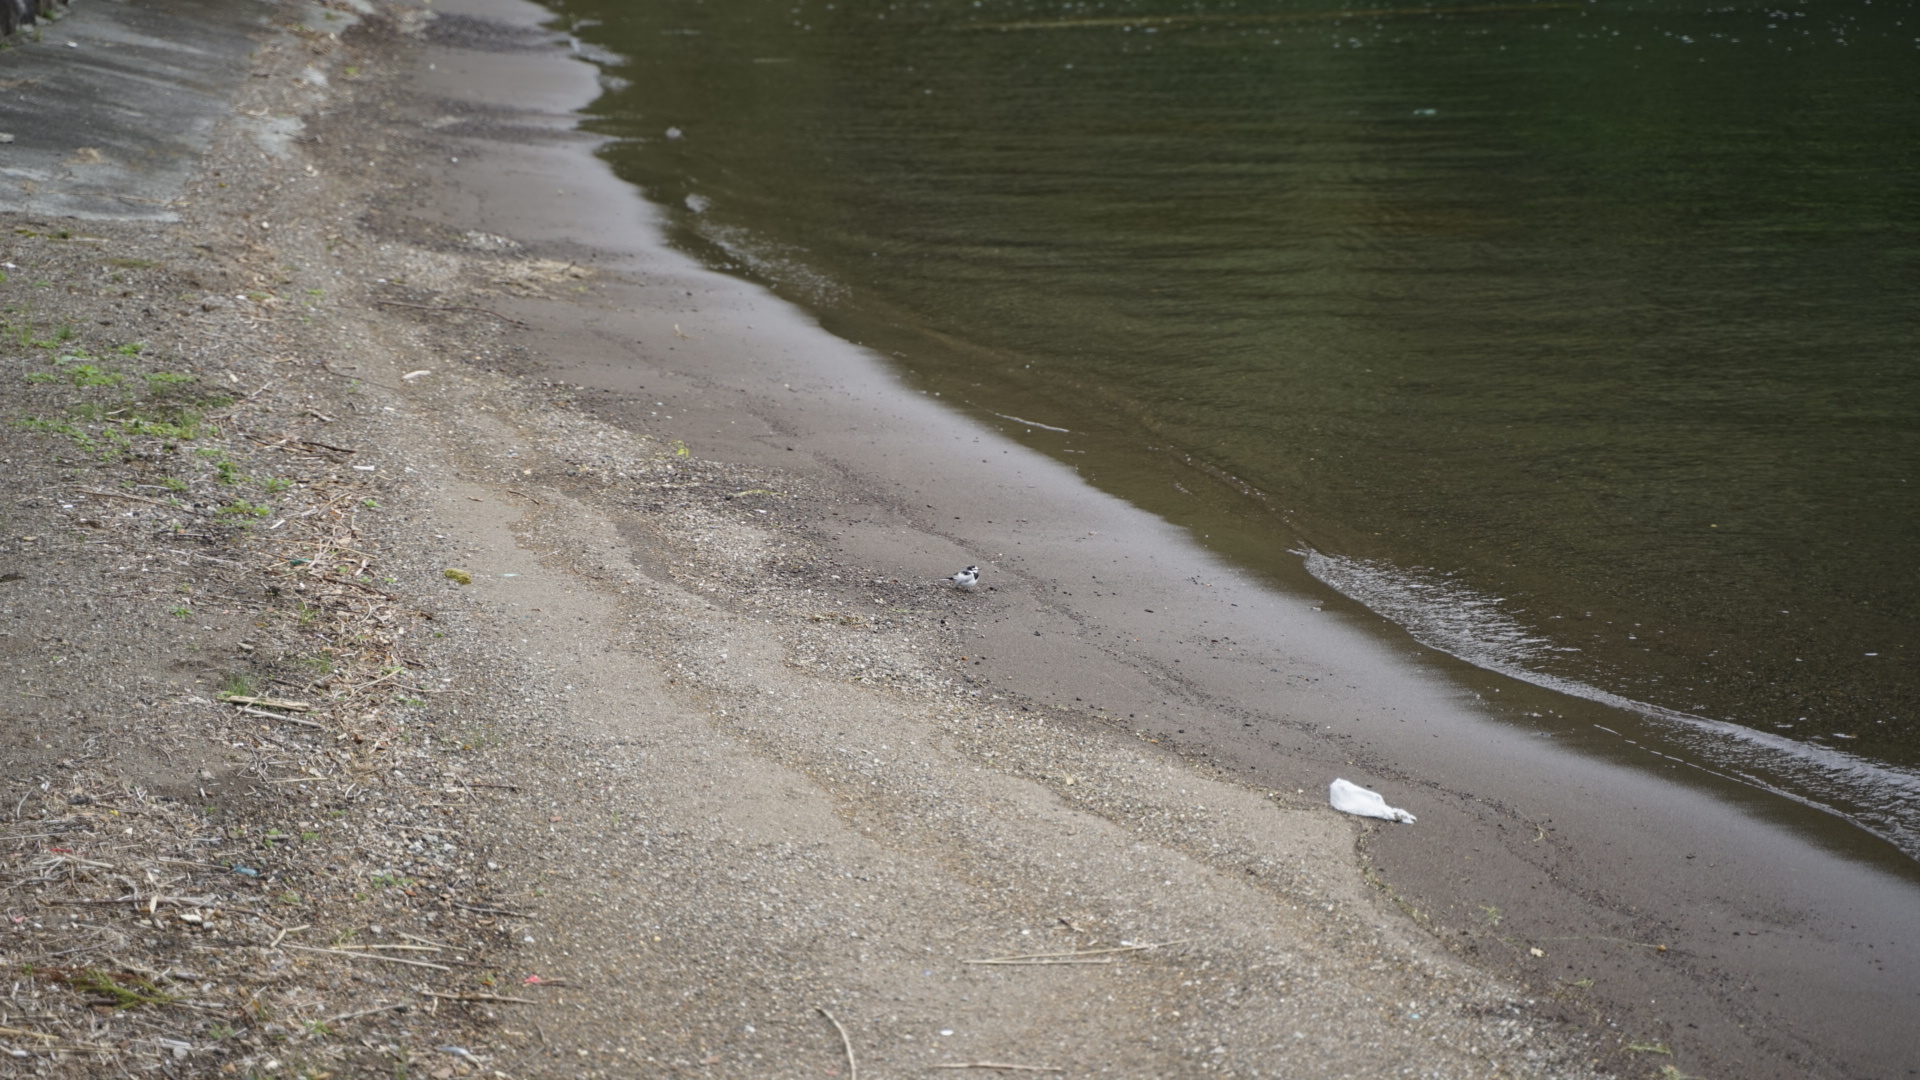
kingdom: Animalia
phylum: Chordata
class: Aves
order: Passeriformes
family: Motacillidae
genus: Motacilla
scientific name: Motacilla alba
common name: White wagtail
